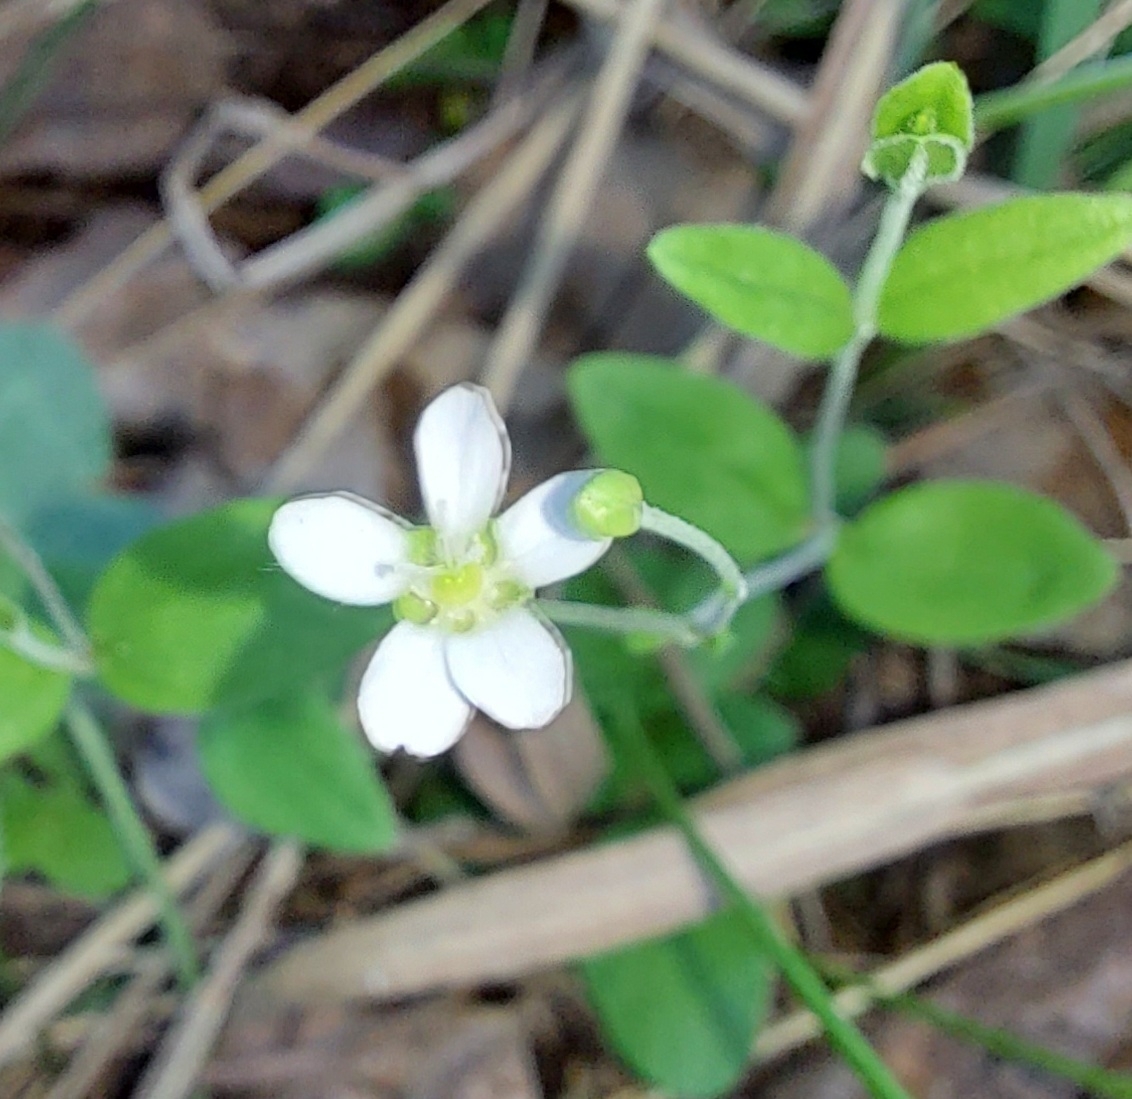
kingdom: Plantae
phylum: Tracheophyta
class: Magnoliopsida
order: Caryophyllales
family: Caryophyllaceae
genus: Moehringia
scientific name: Moehringia lateriflora
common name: Blunt-leaved sandwort
